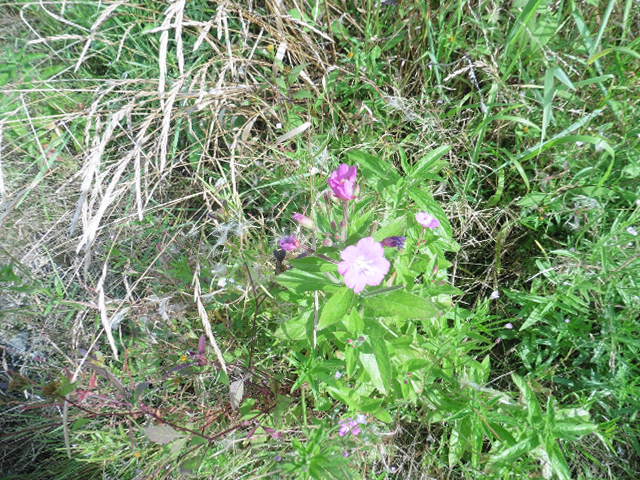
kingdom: Plantae
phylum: Tracheophyta
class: Magnoliopsida
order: Myrtales
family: Onagraceae
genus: Epilobium
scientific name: Epilobium hirsutum
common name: Great willowherb
